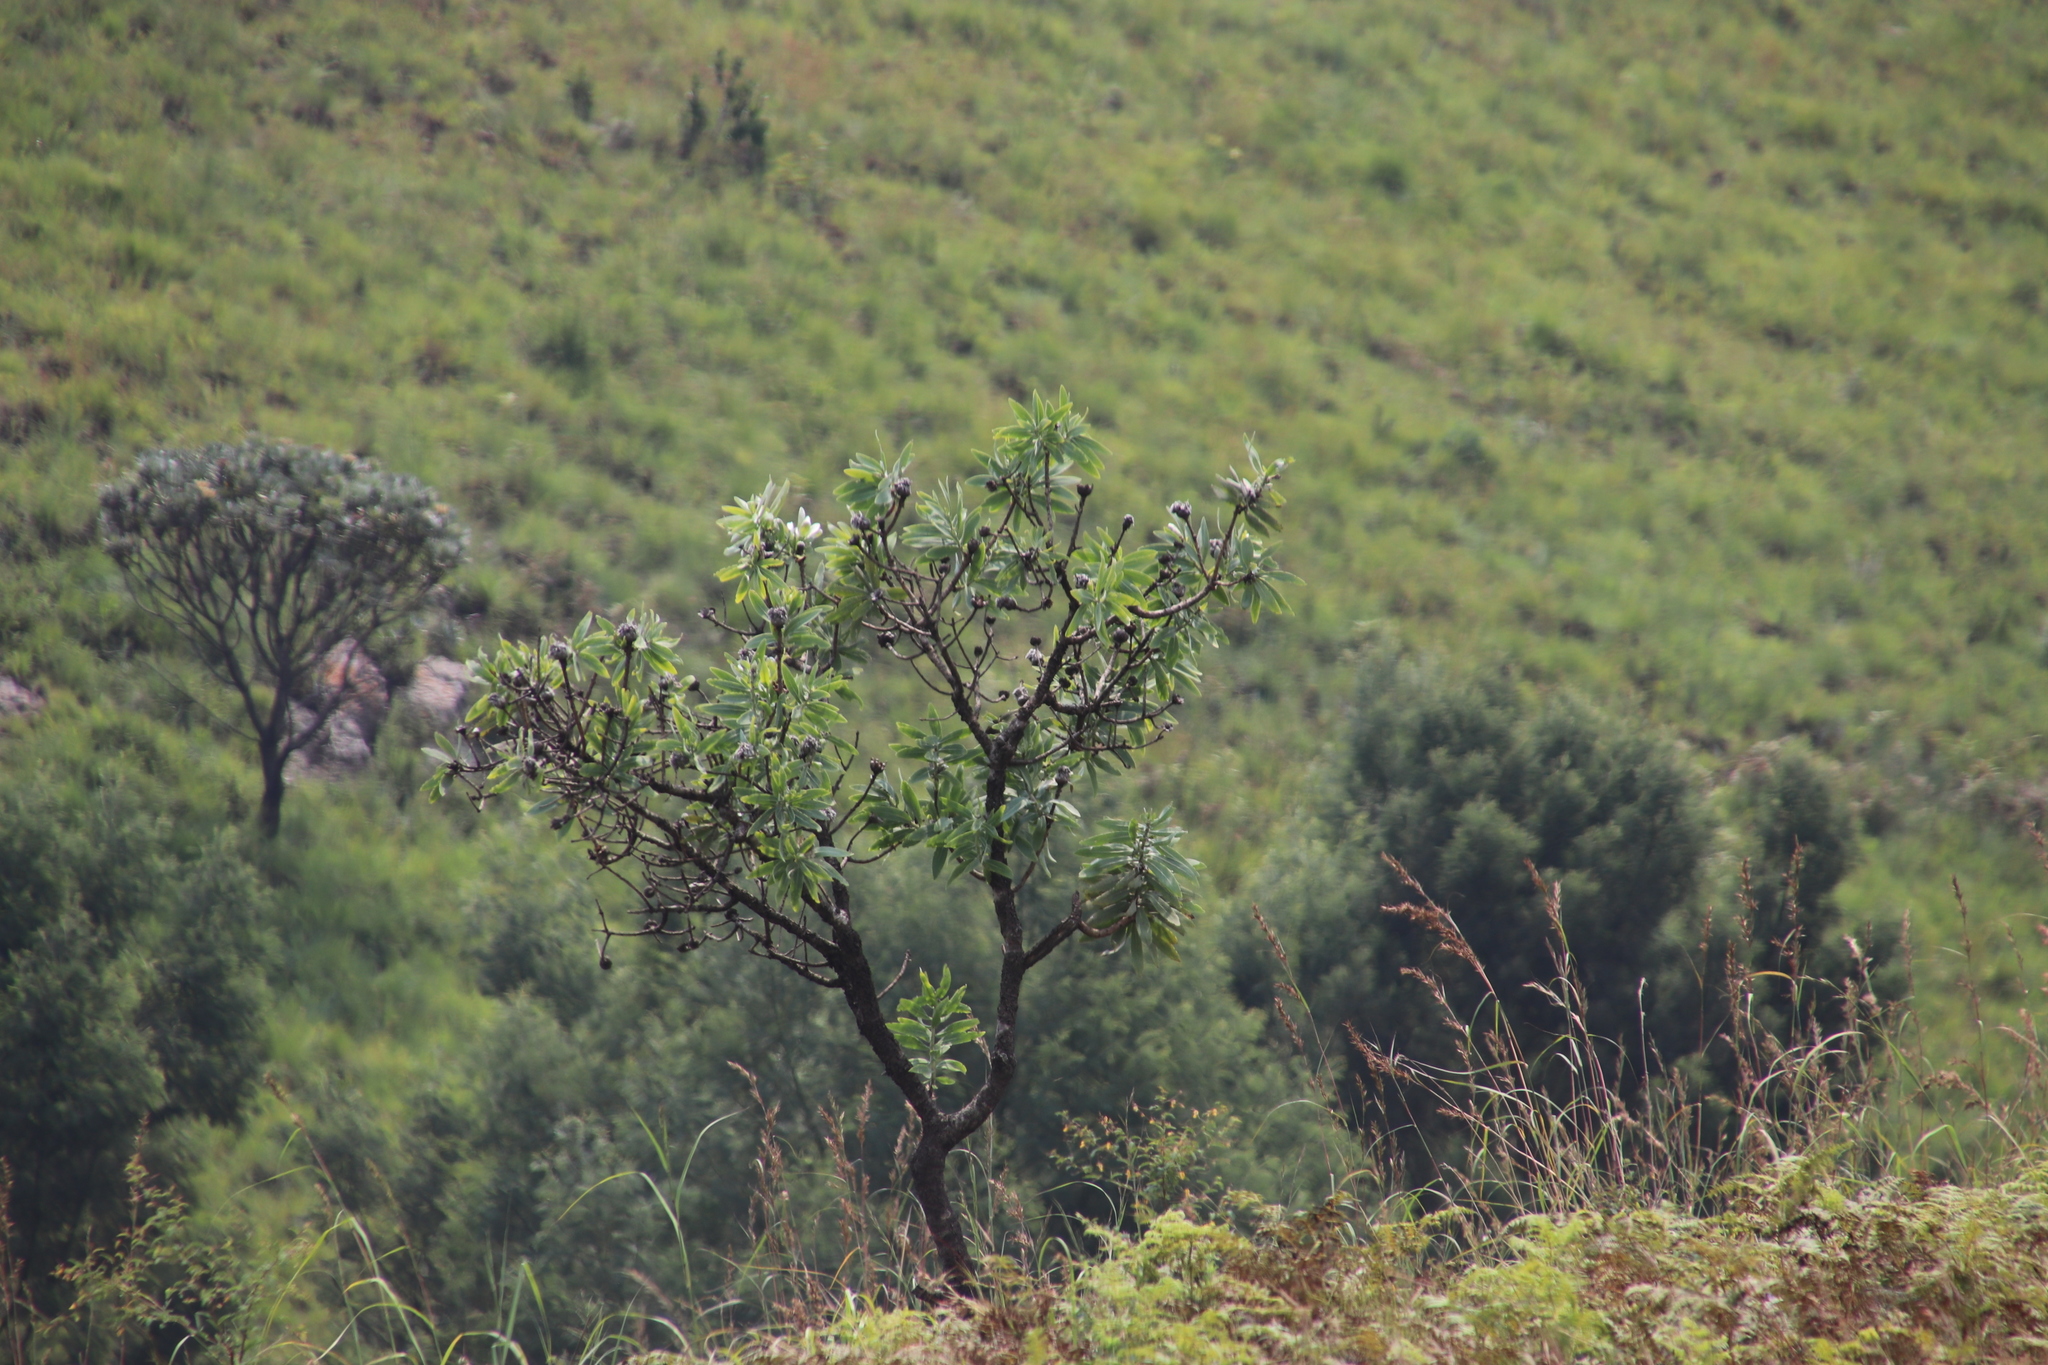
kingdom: Plantae
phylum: Tracheophyta
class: Magnoliopsida
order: Proteales
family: Proteaceae
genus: Protea
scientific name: Protea caffra
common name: Common sugarbush
